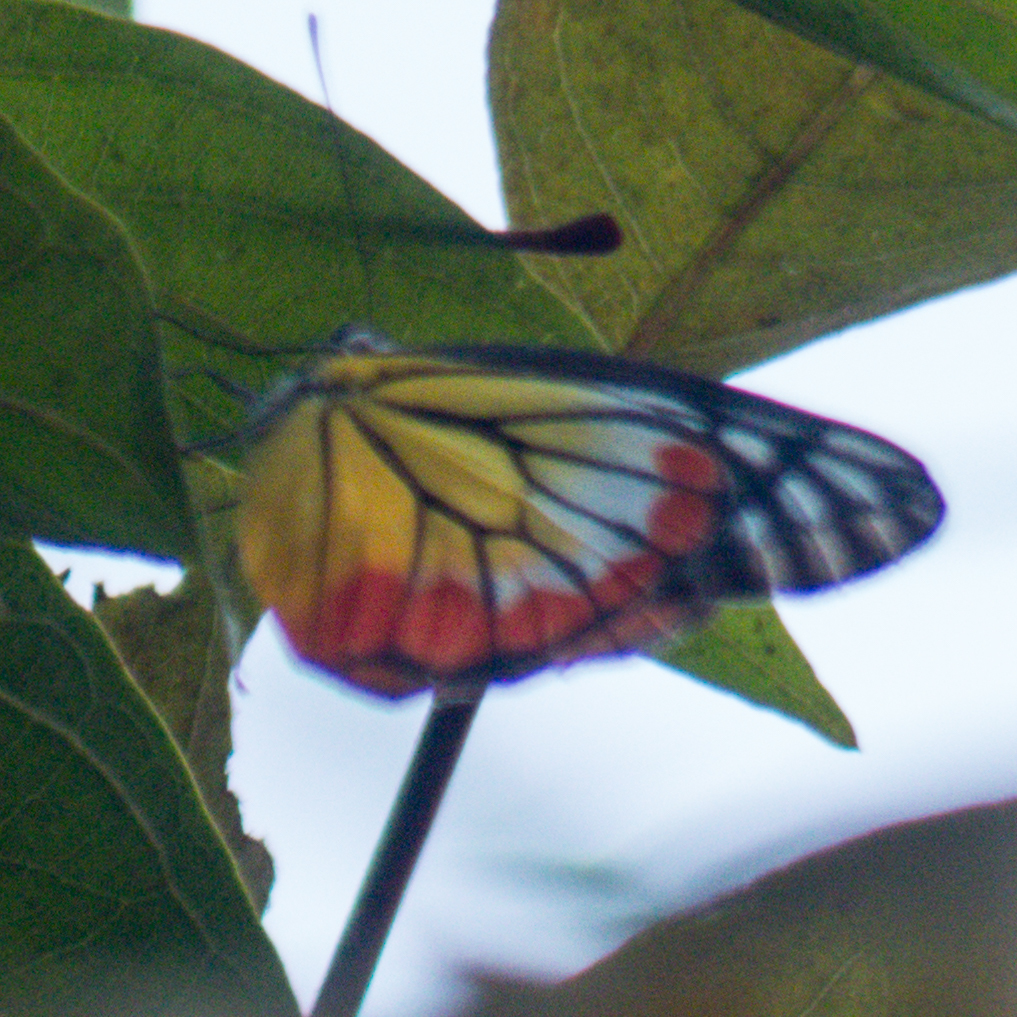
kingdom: Animalia
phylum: Arthropoda
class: Insecta
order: Lepidoptera
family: Pieridae
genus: Delias
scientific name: Delias hyparete
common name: Painted jezebel
